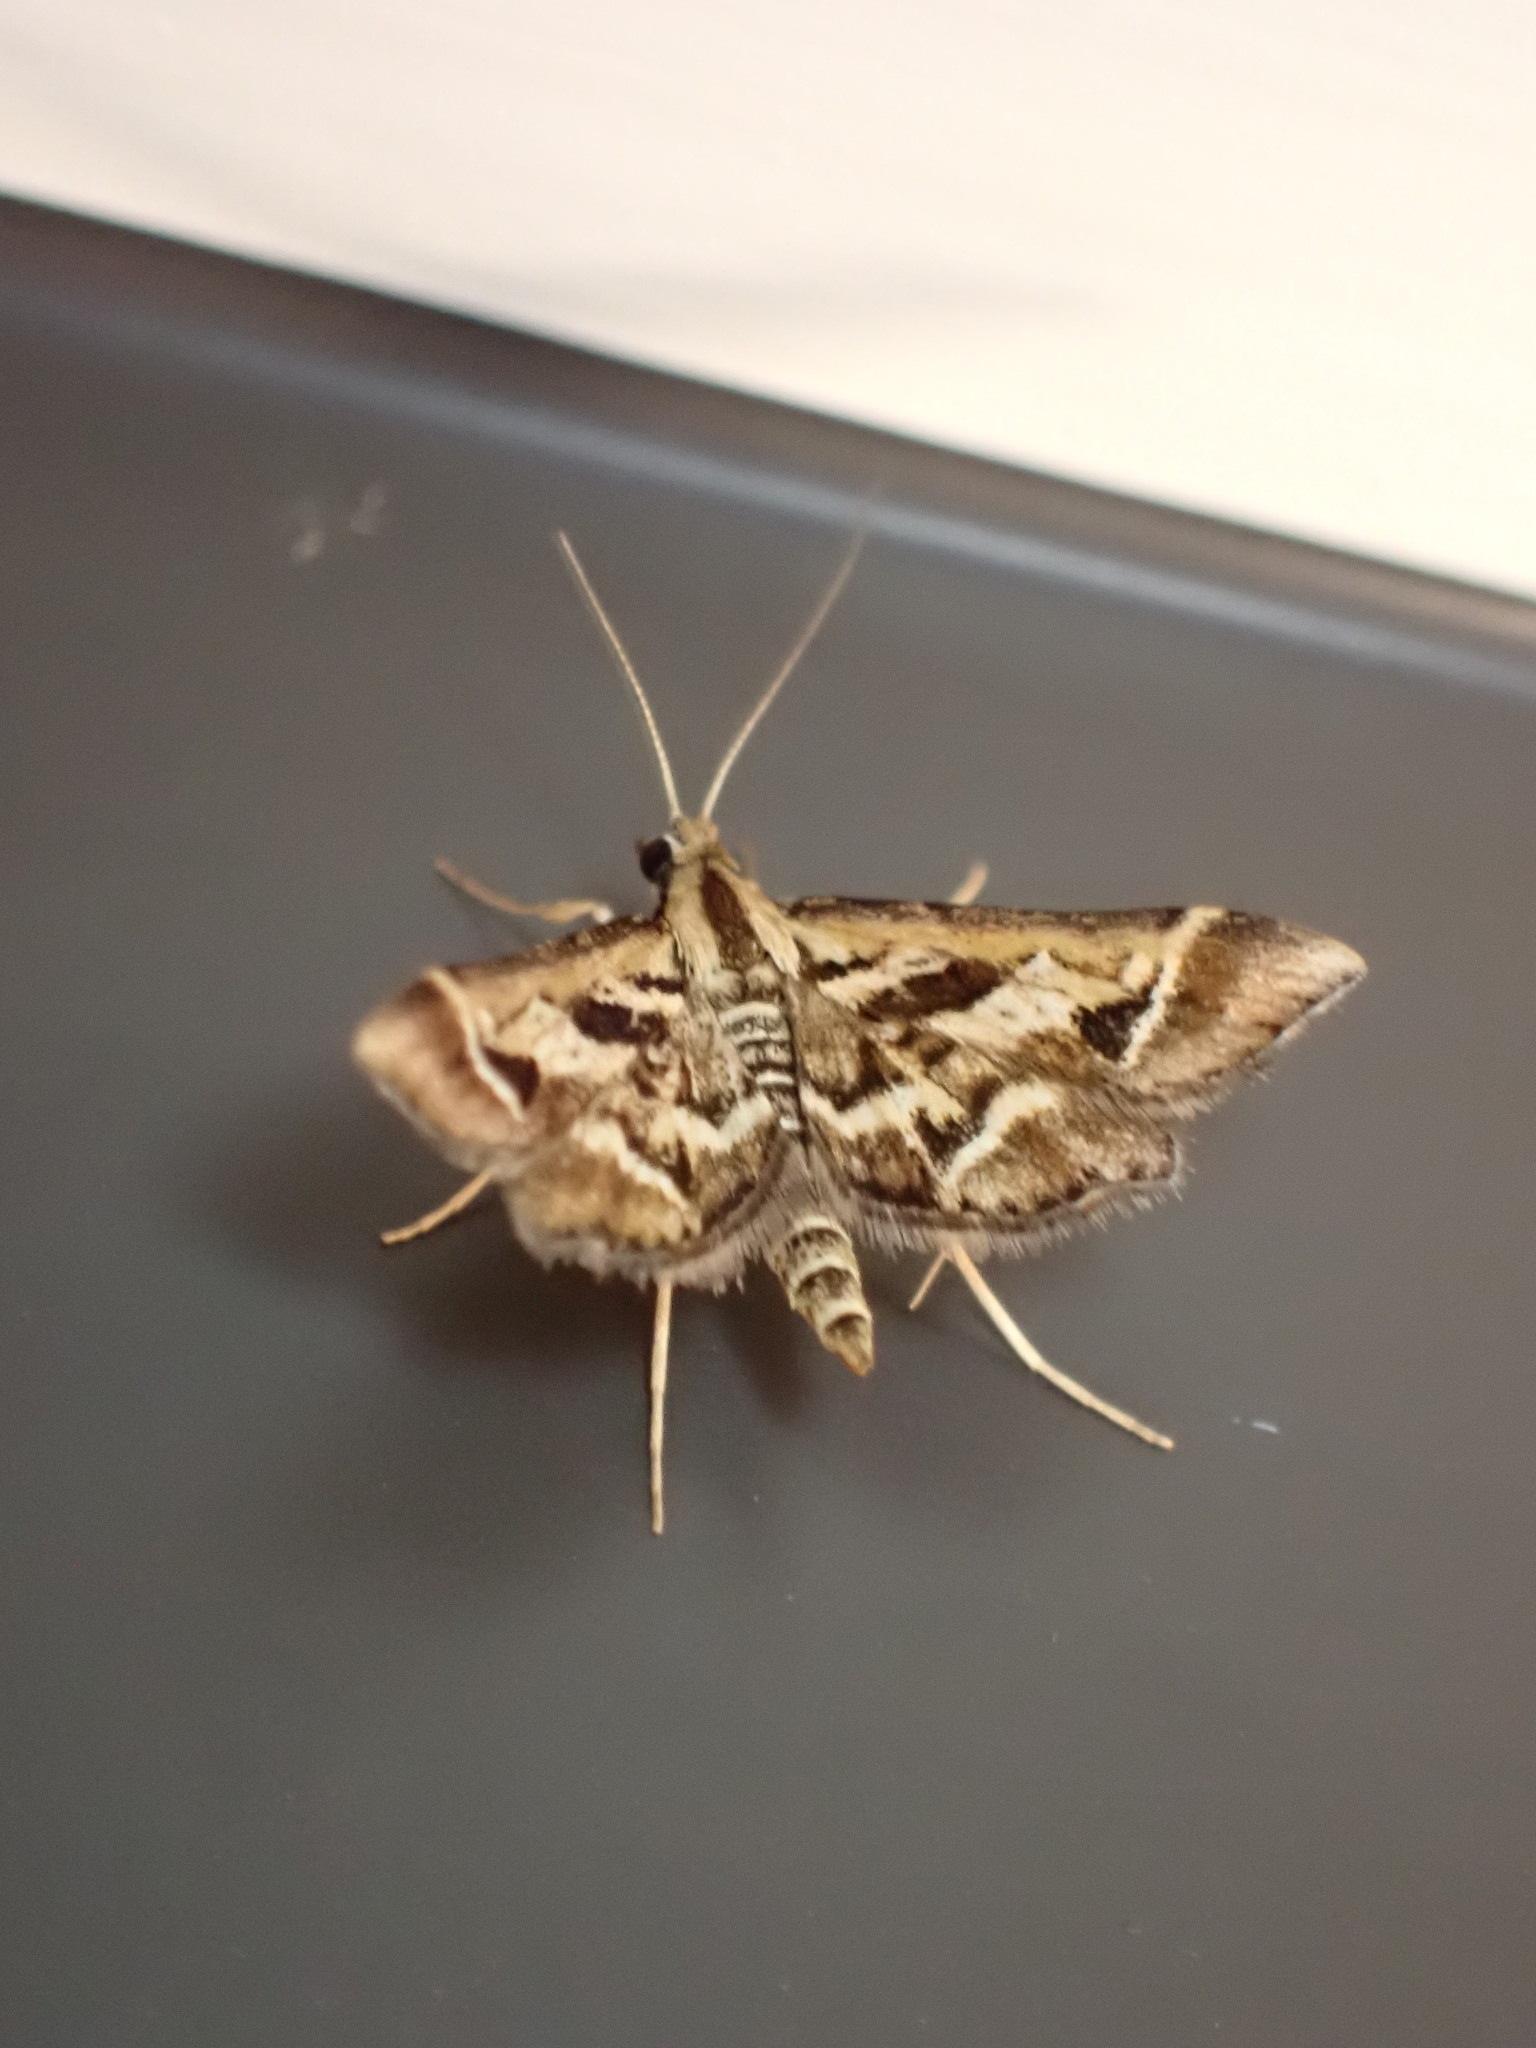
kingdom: Animalia
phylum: Arthropoda
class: Insecta
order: Lepidoptera
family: Crambidae
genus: Diasemia
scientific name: Diasemia grammalis
